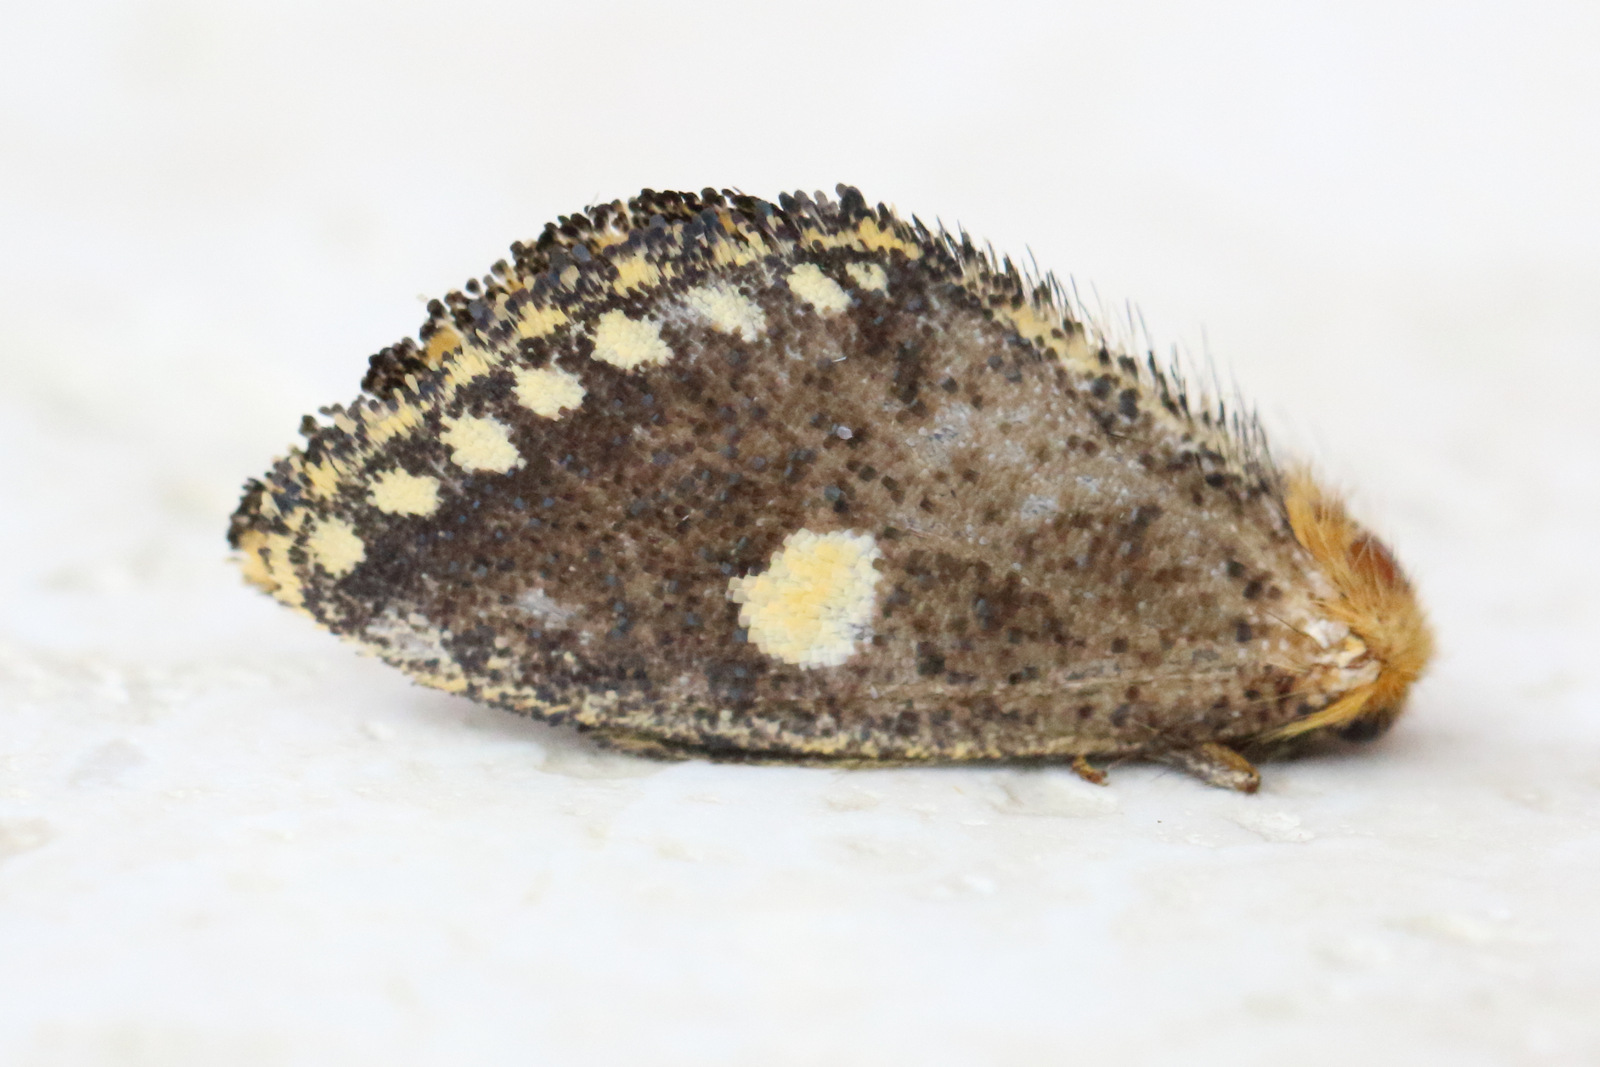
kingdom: Animalia
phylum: Arthropoda
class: Insecta
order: Lepidoptera
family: Notodontidae
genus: Epicoma
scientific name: Epicoma protrahens
